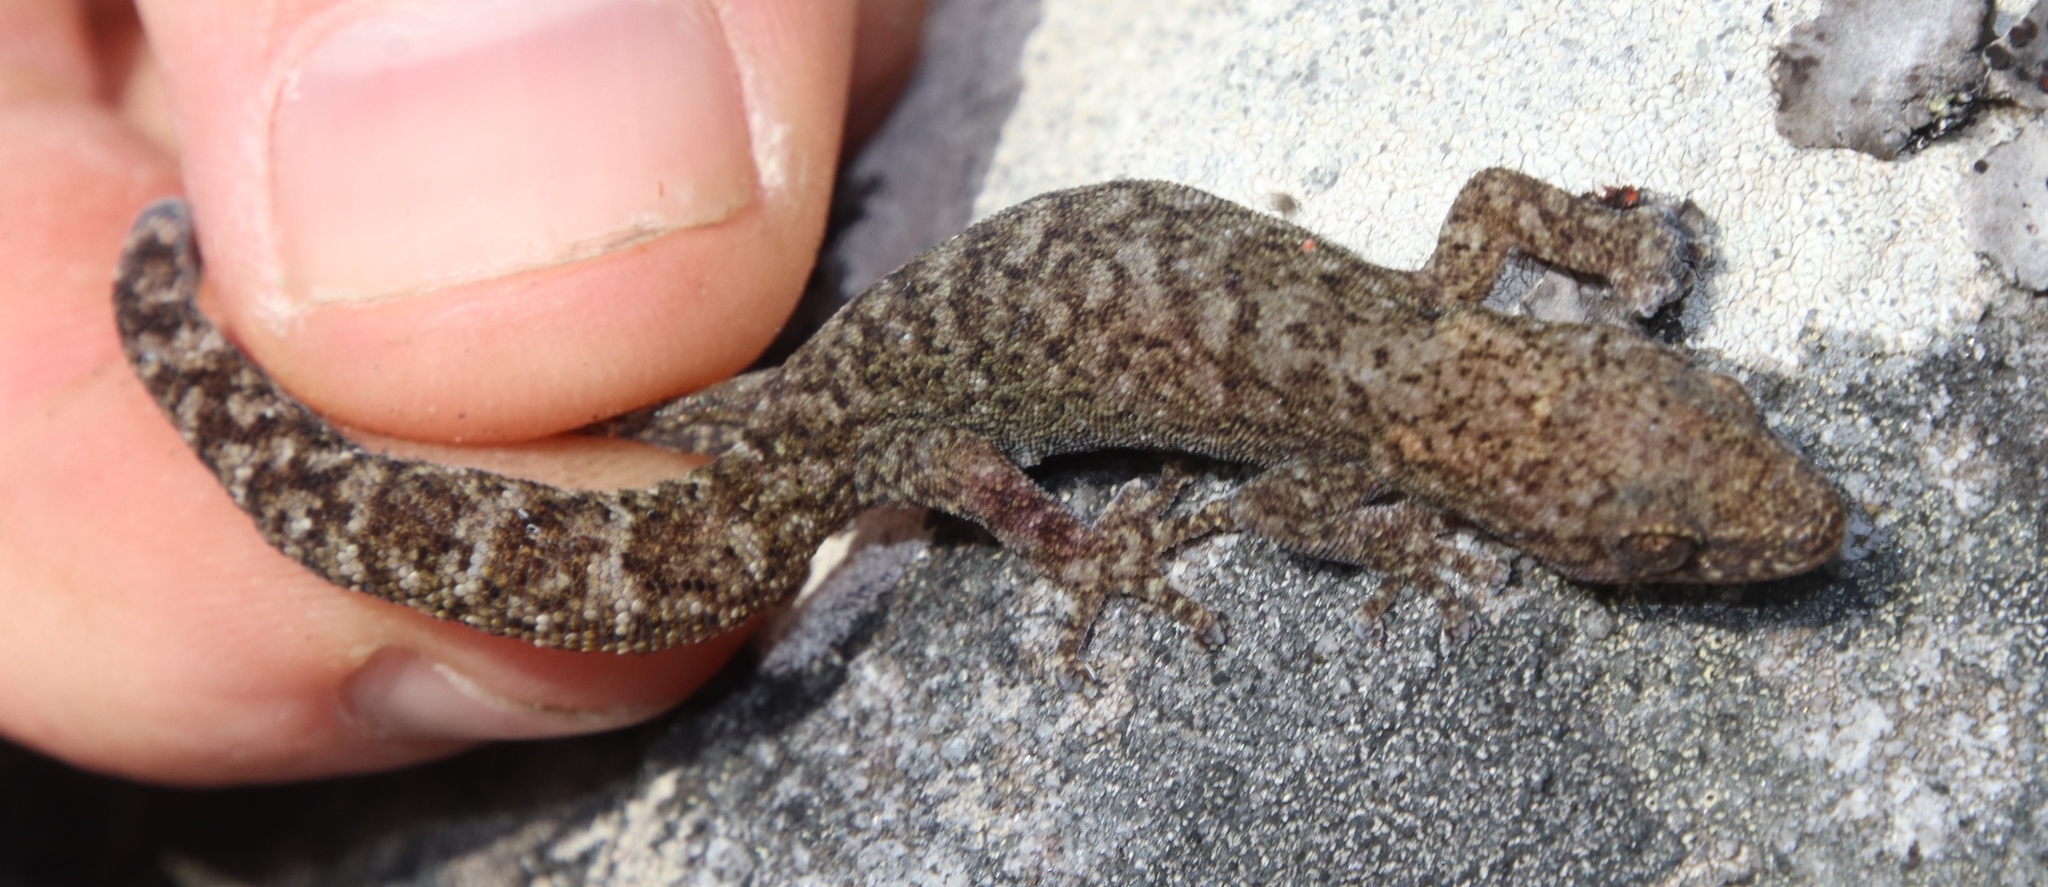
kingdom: Animalia
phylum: Chordata
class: Squamata
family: Gekkonidae
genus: Afrogecko
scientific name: Afrogecko porphyreus
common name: Marbled leaf-toed gecko
